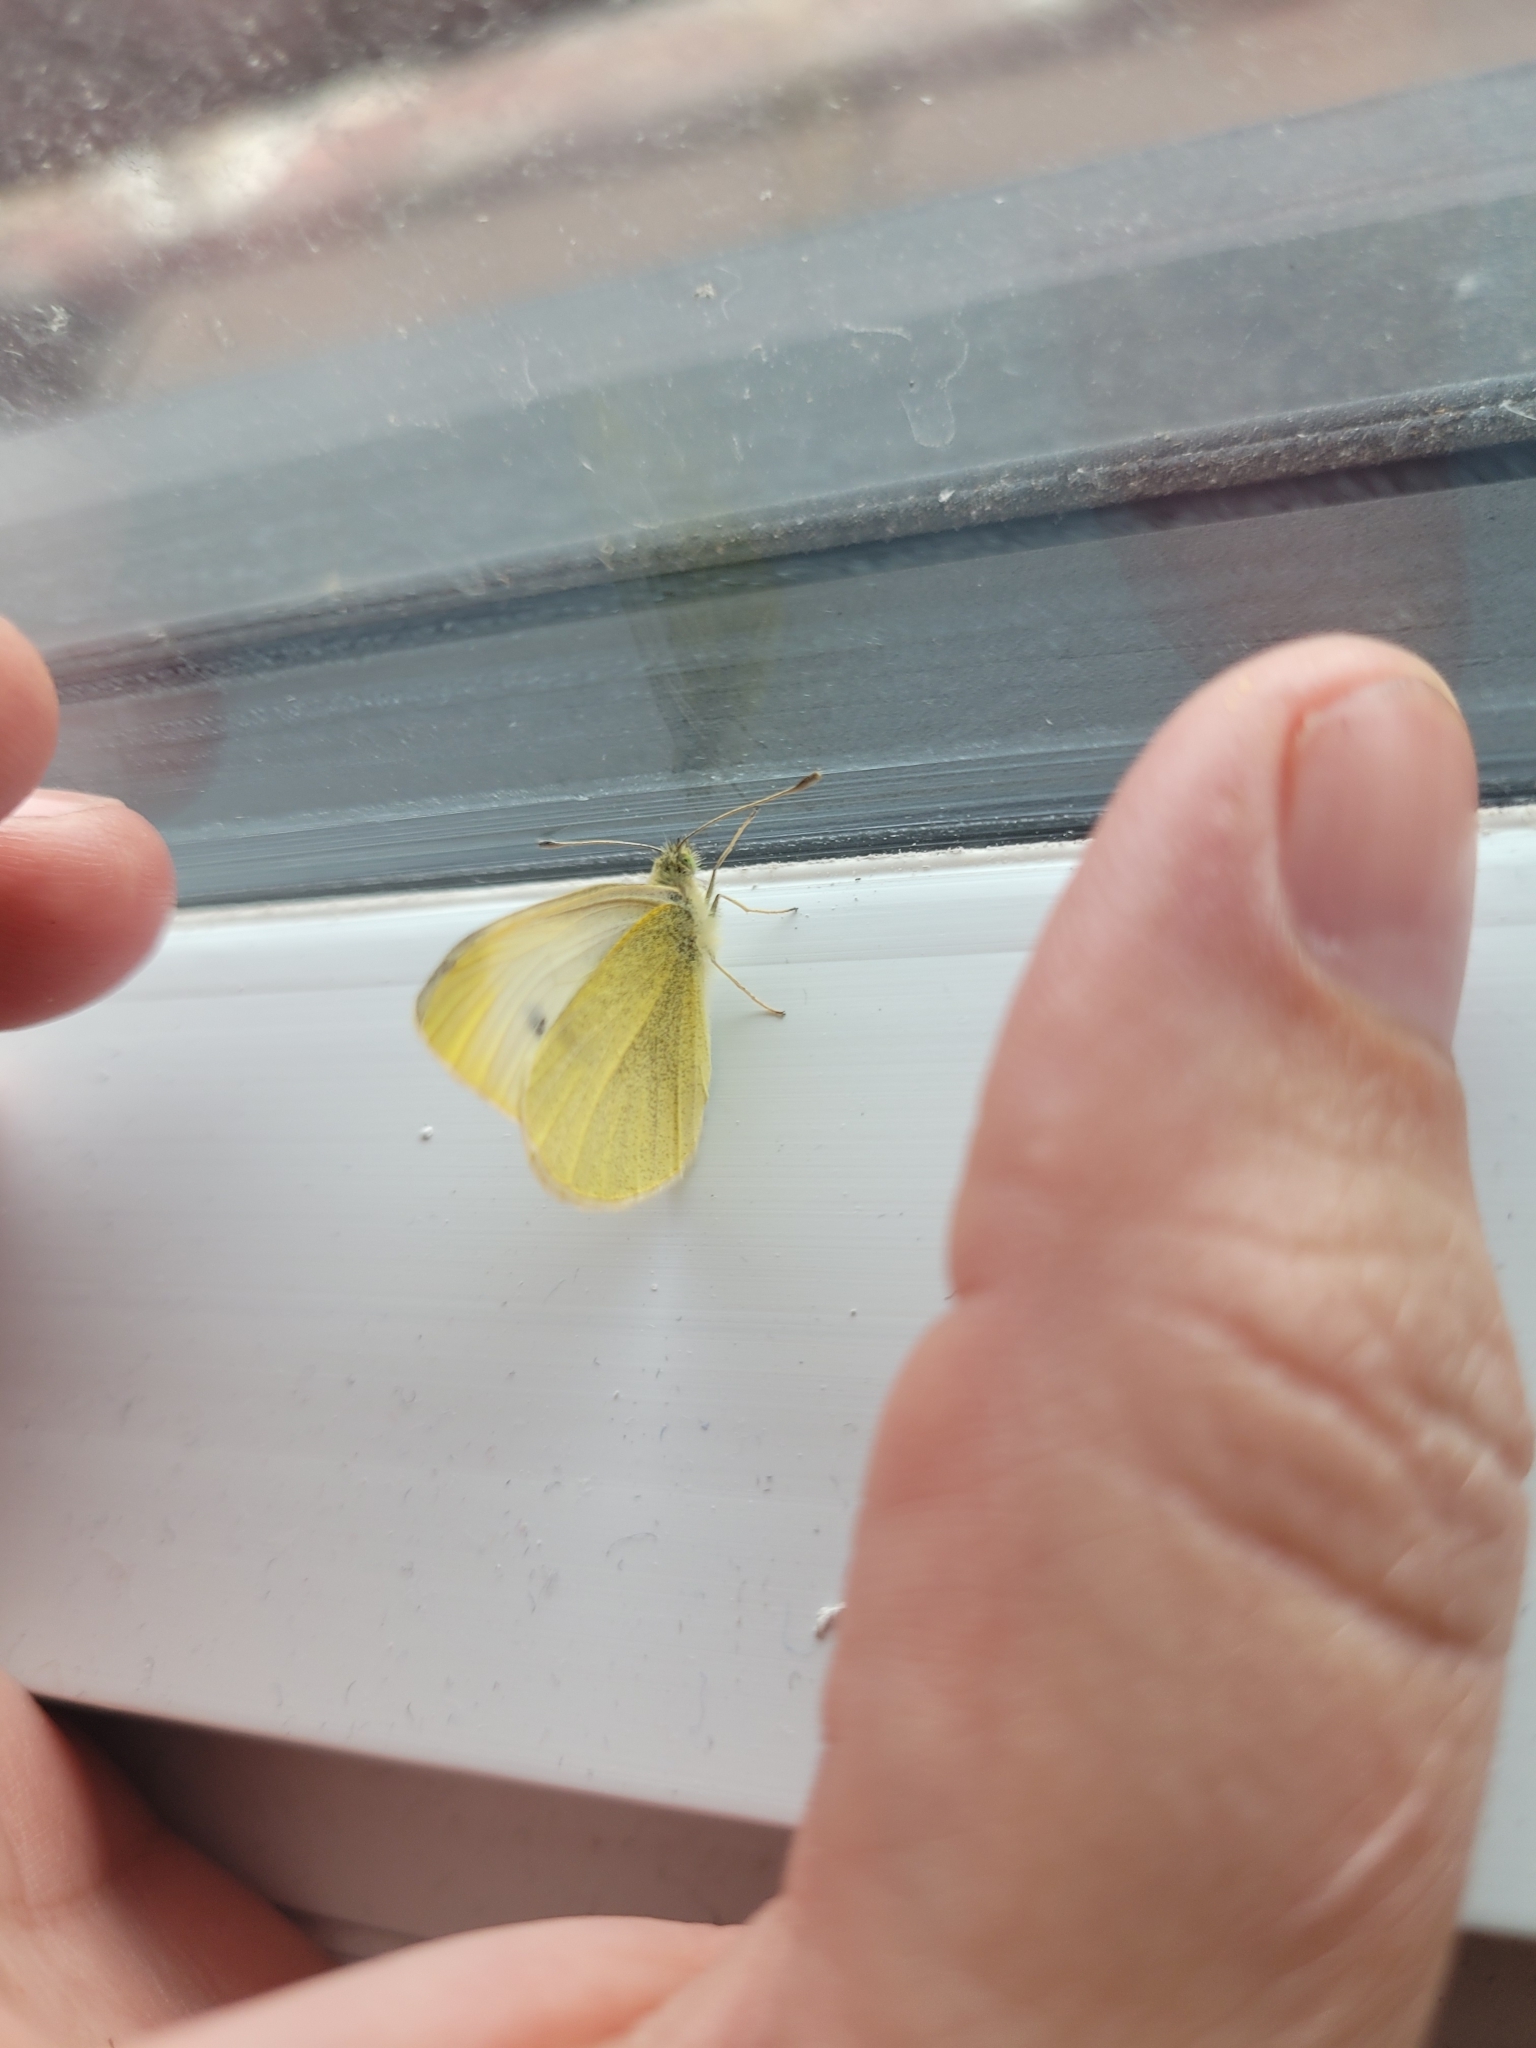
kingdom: Animalia
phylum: Arthropoda
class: Insecta
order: Lepidoptera
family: Pieridae
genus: Pieris
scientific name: Pieris rapae
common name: Small white
